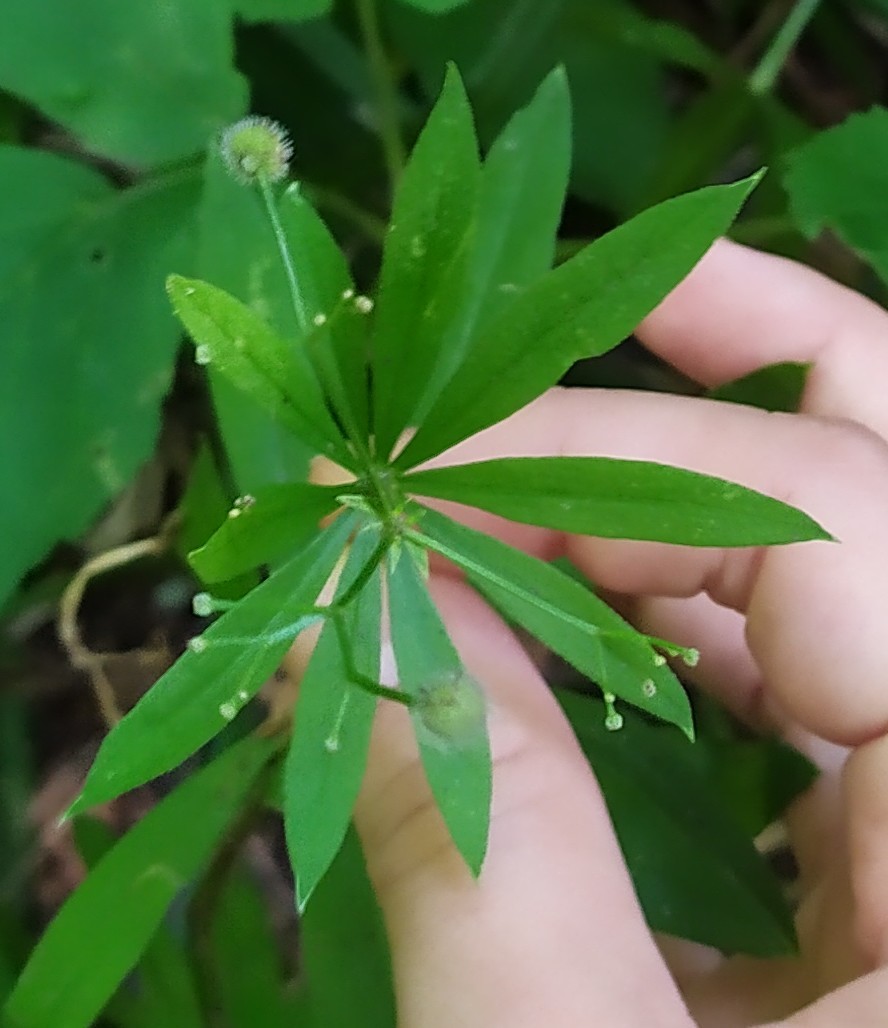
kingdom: Plantae
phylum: Tracheophyta
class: Magnoliopsida
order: Gentianales
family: Rubiaceae
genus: Galium
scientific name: Galium odoratum
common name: Sweet woodruff
